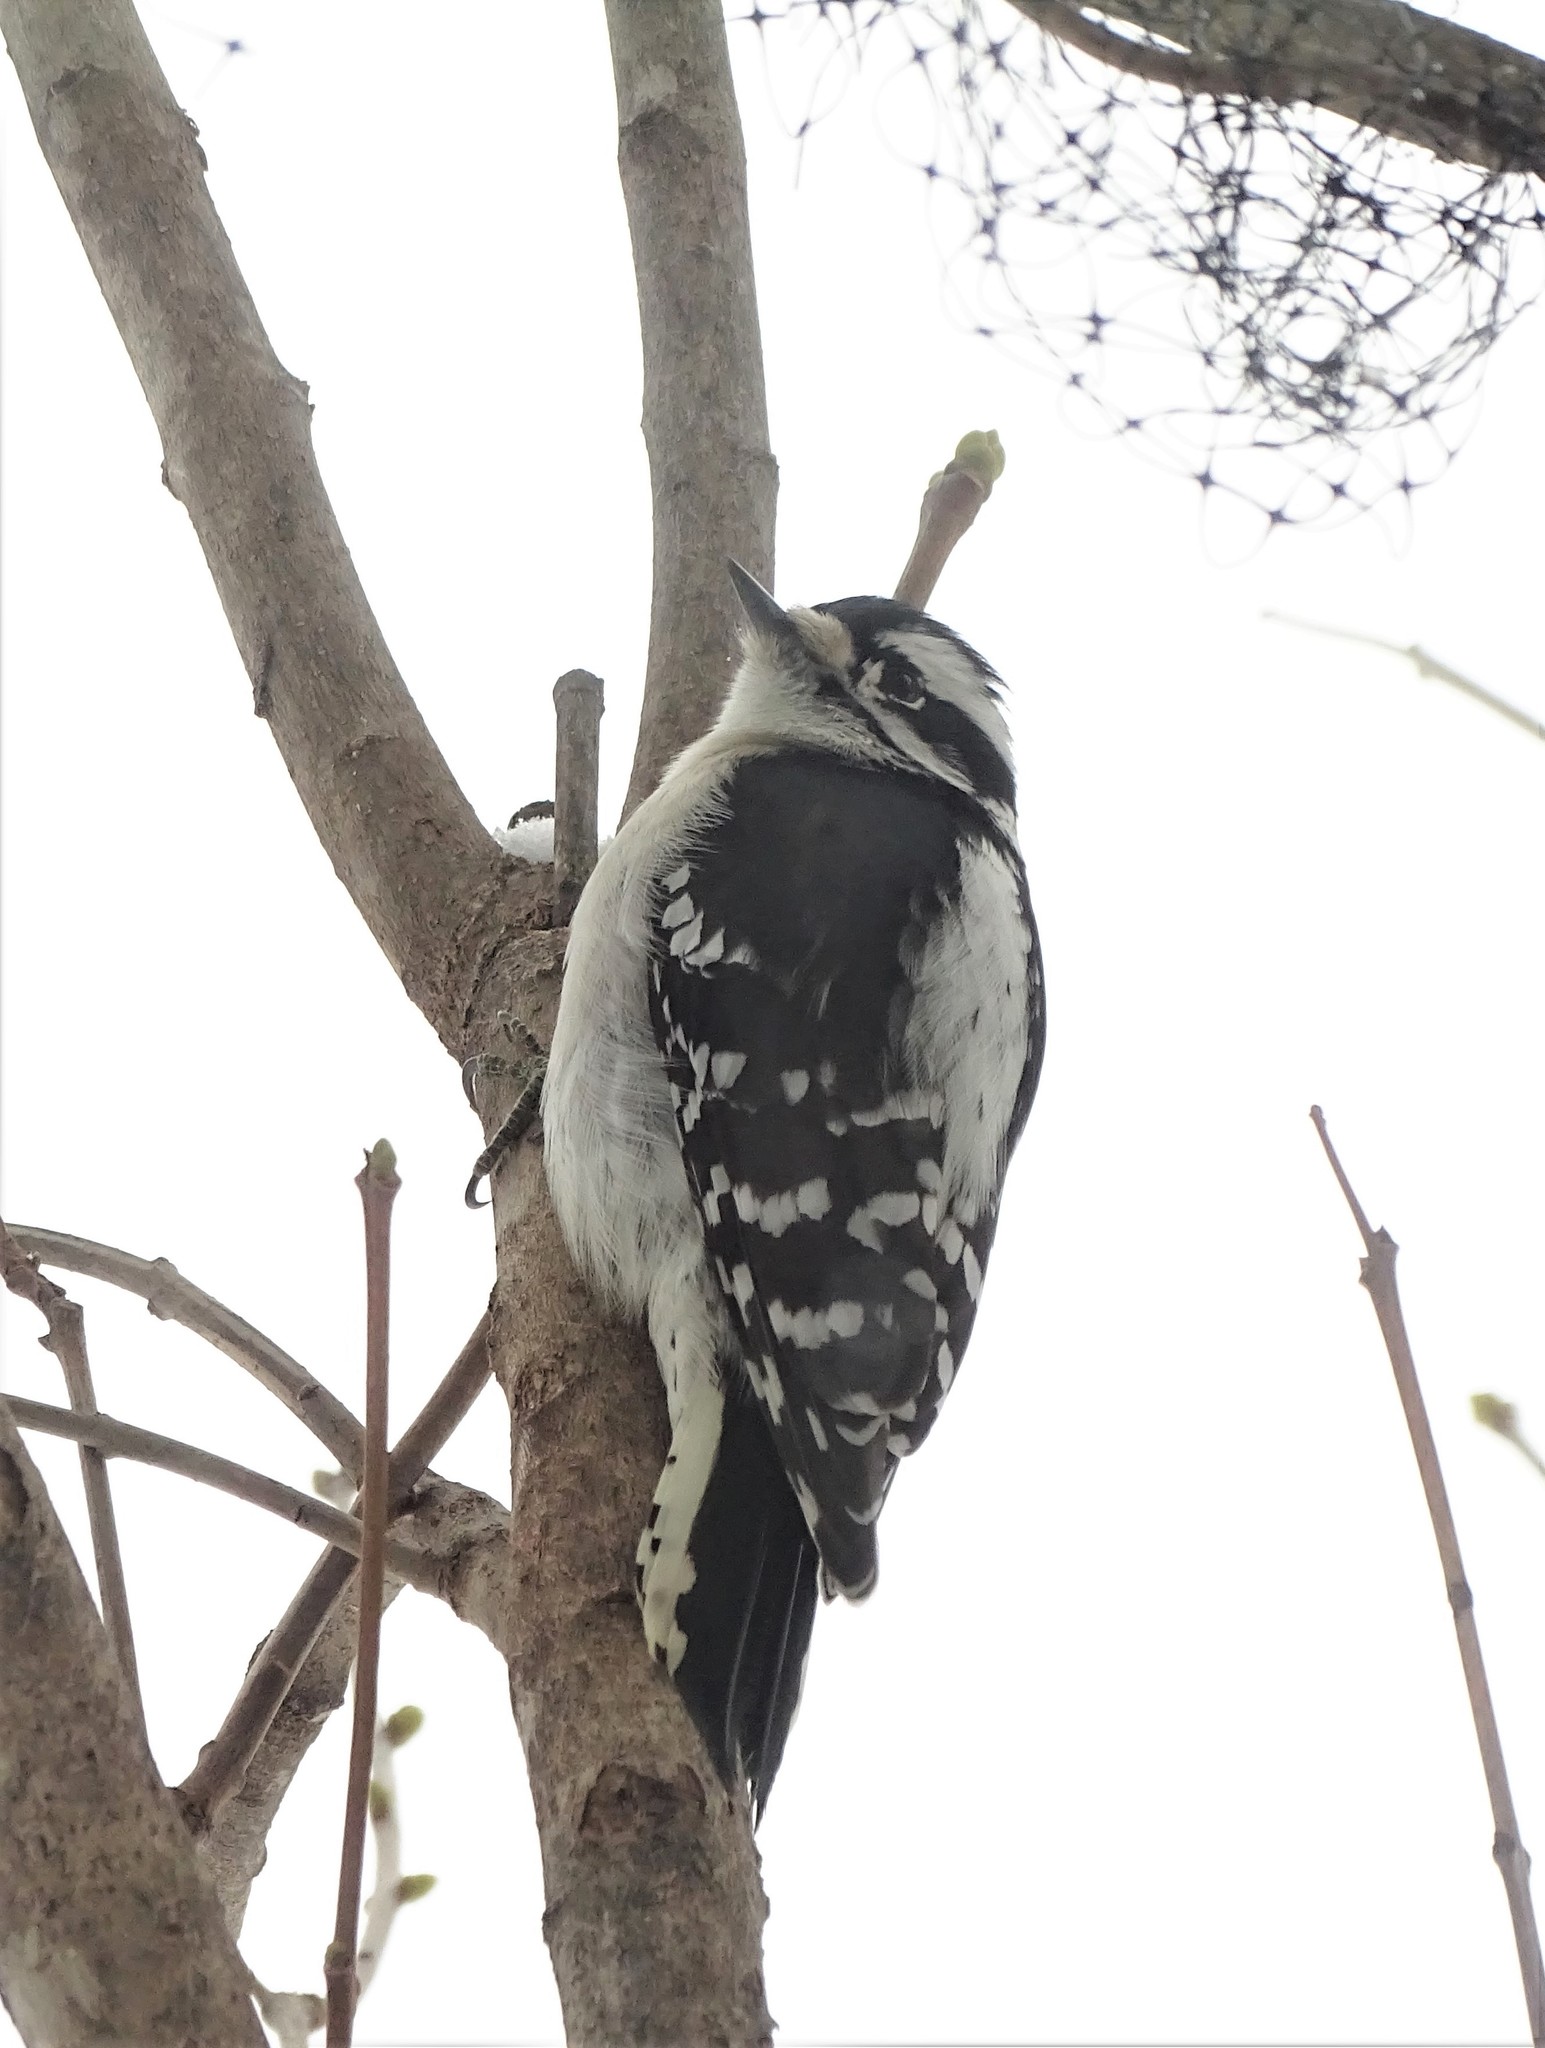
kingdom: Animalia
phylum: Chordata
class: Aves
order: Piciformes
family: Picidae
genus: Dryobates
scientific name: Dryobates pubescens
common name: Downy woodpecker
